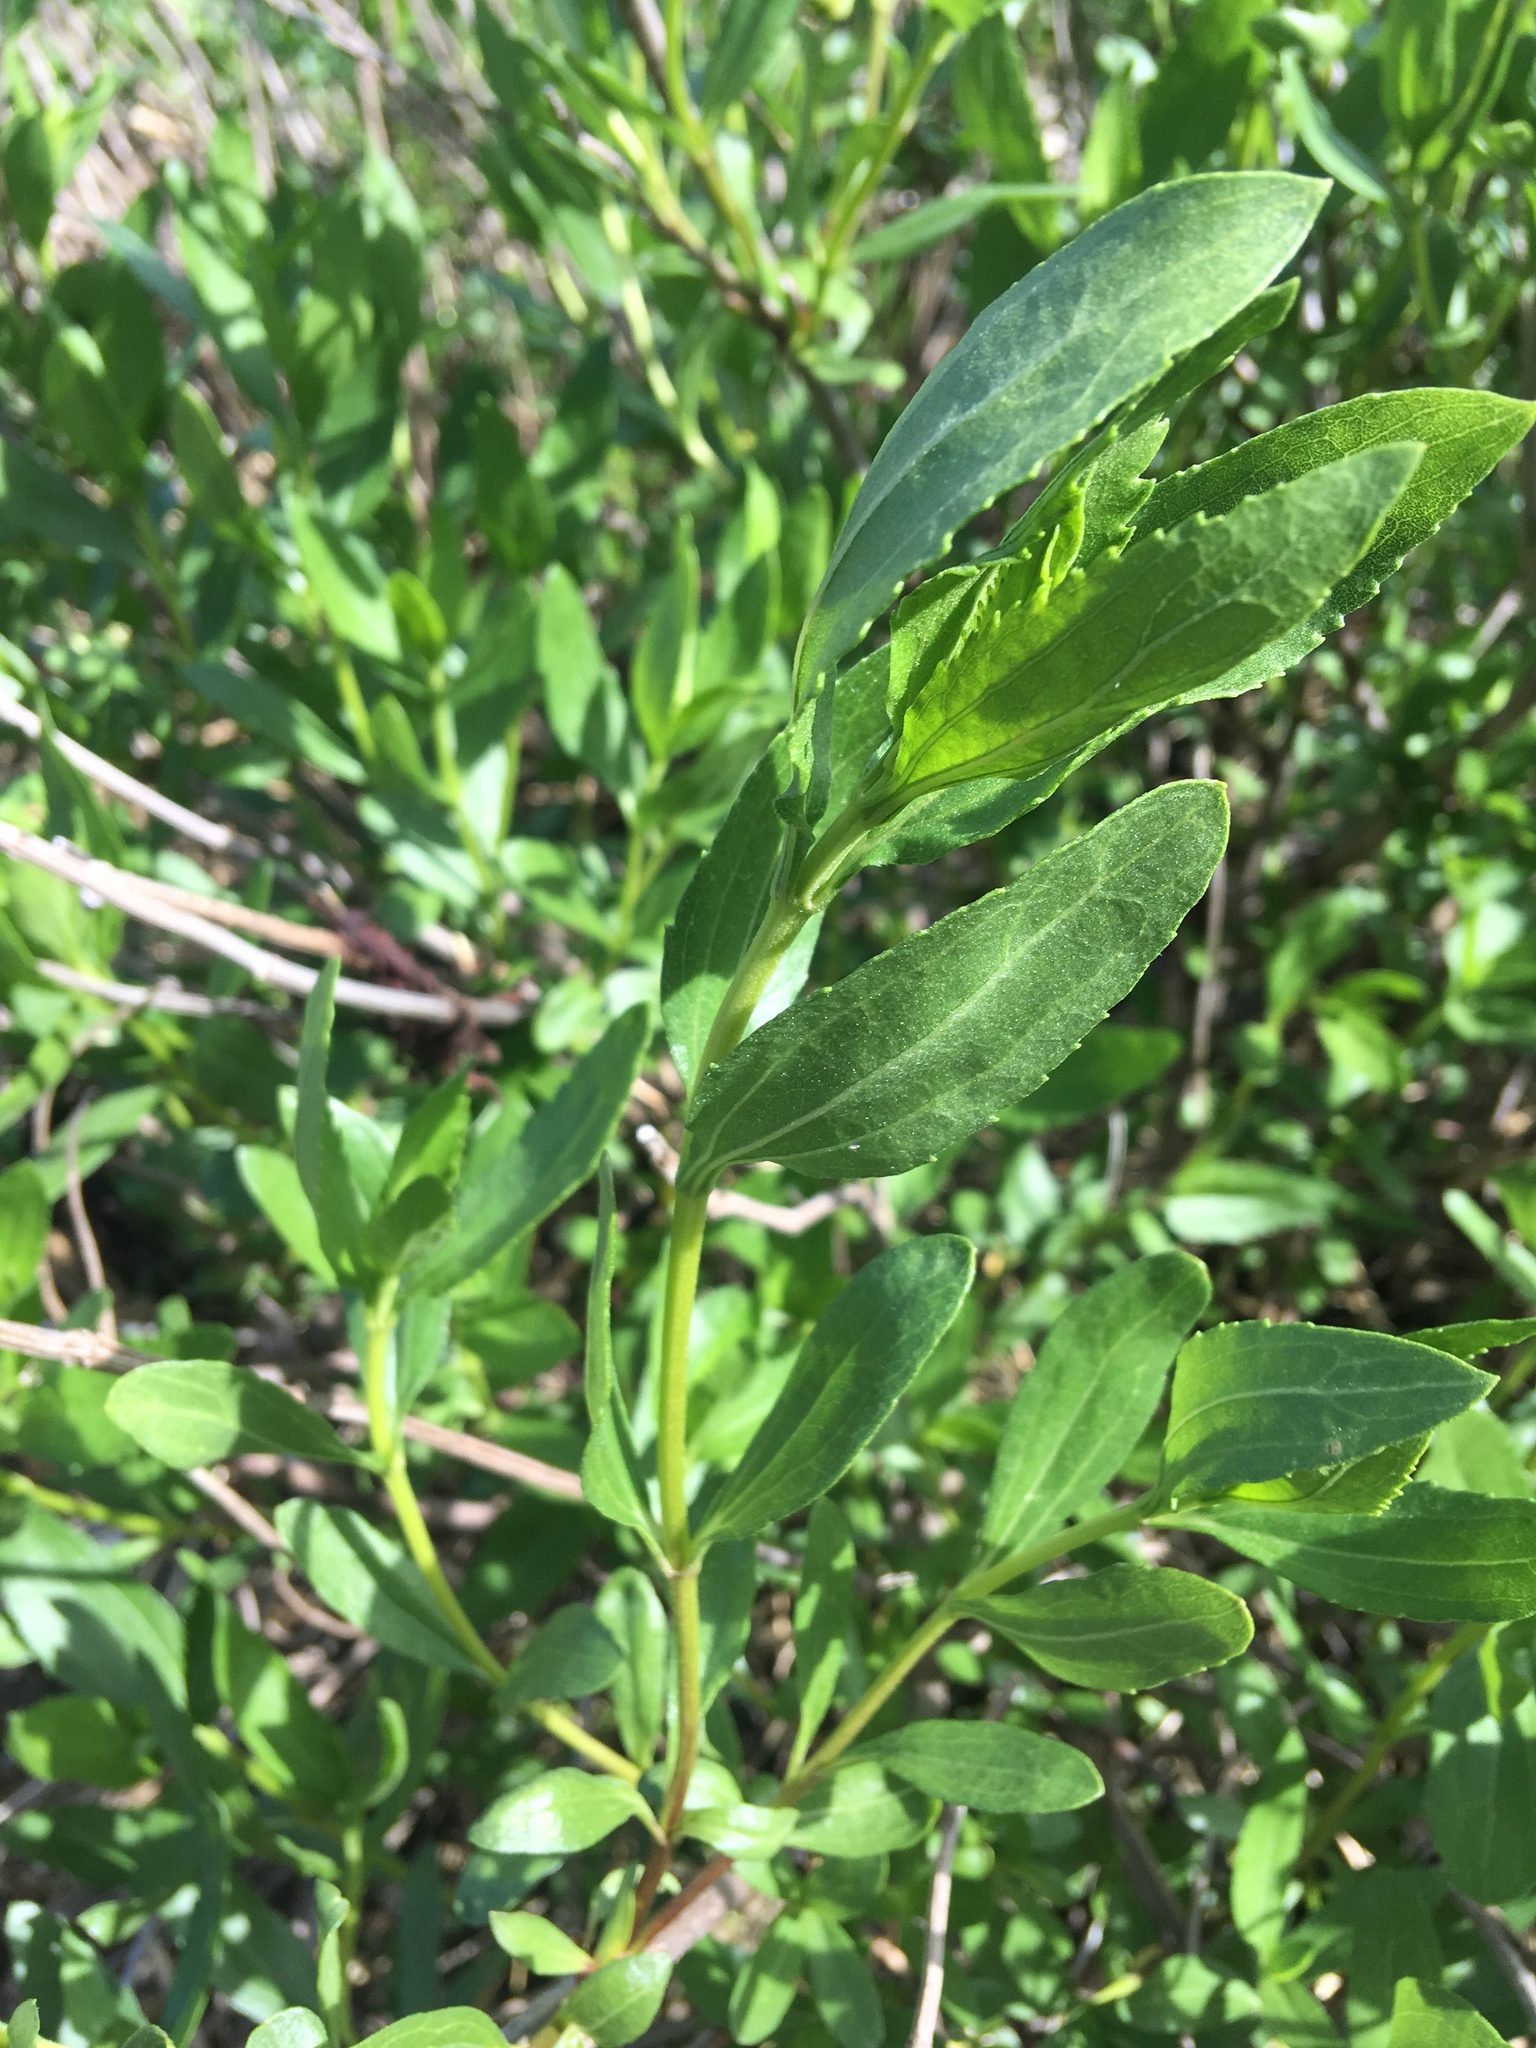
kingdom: Plantae
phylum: Tracheophyta
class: Magnoliopsida
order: Asterales
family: Asteraceae
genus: Iva
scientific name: Iva frutescens
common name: Big-leaved marsh-elder
